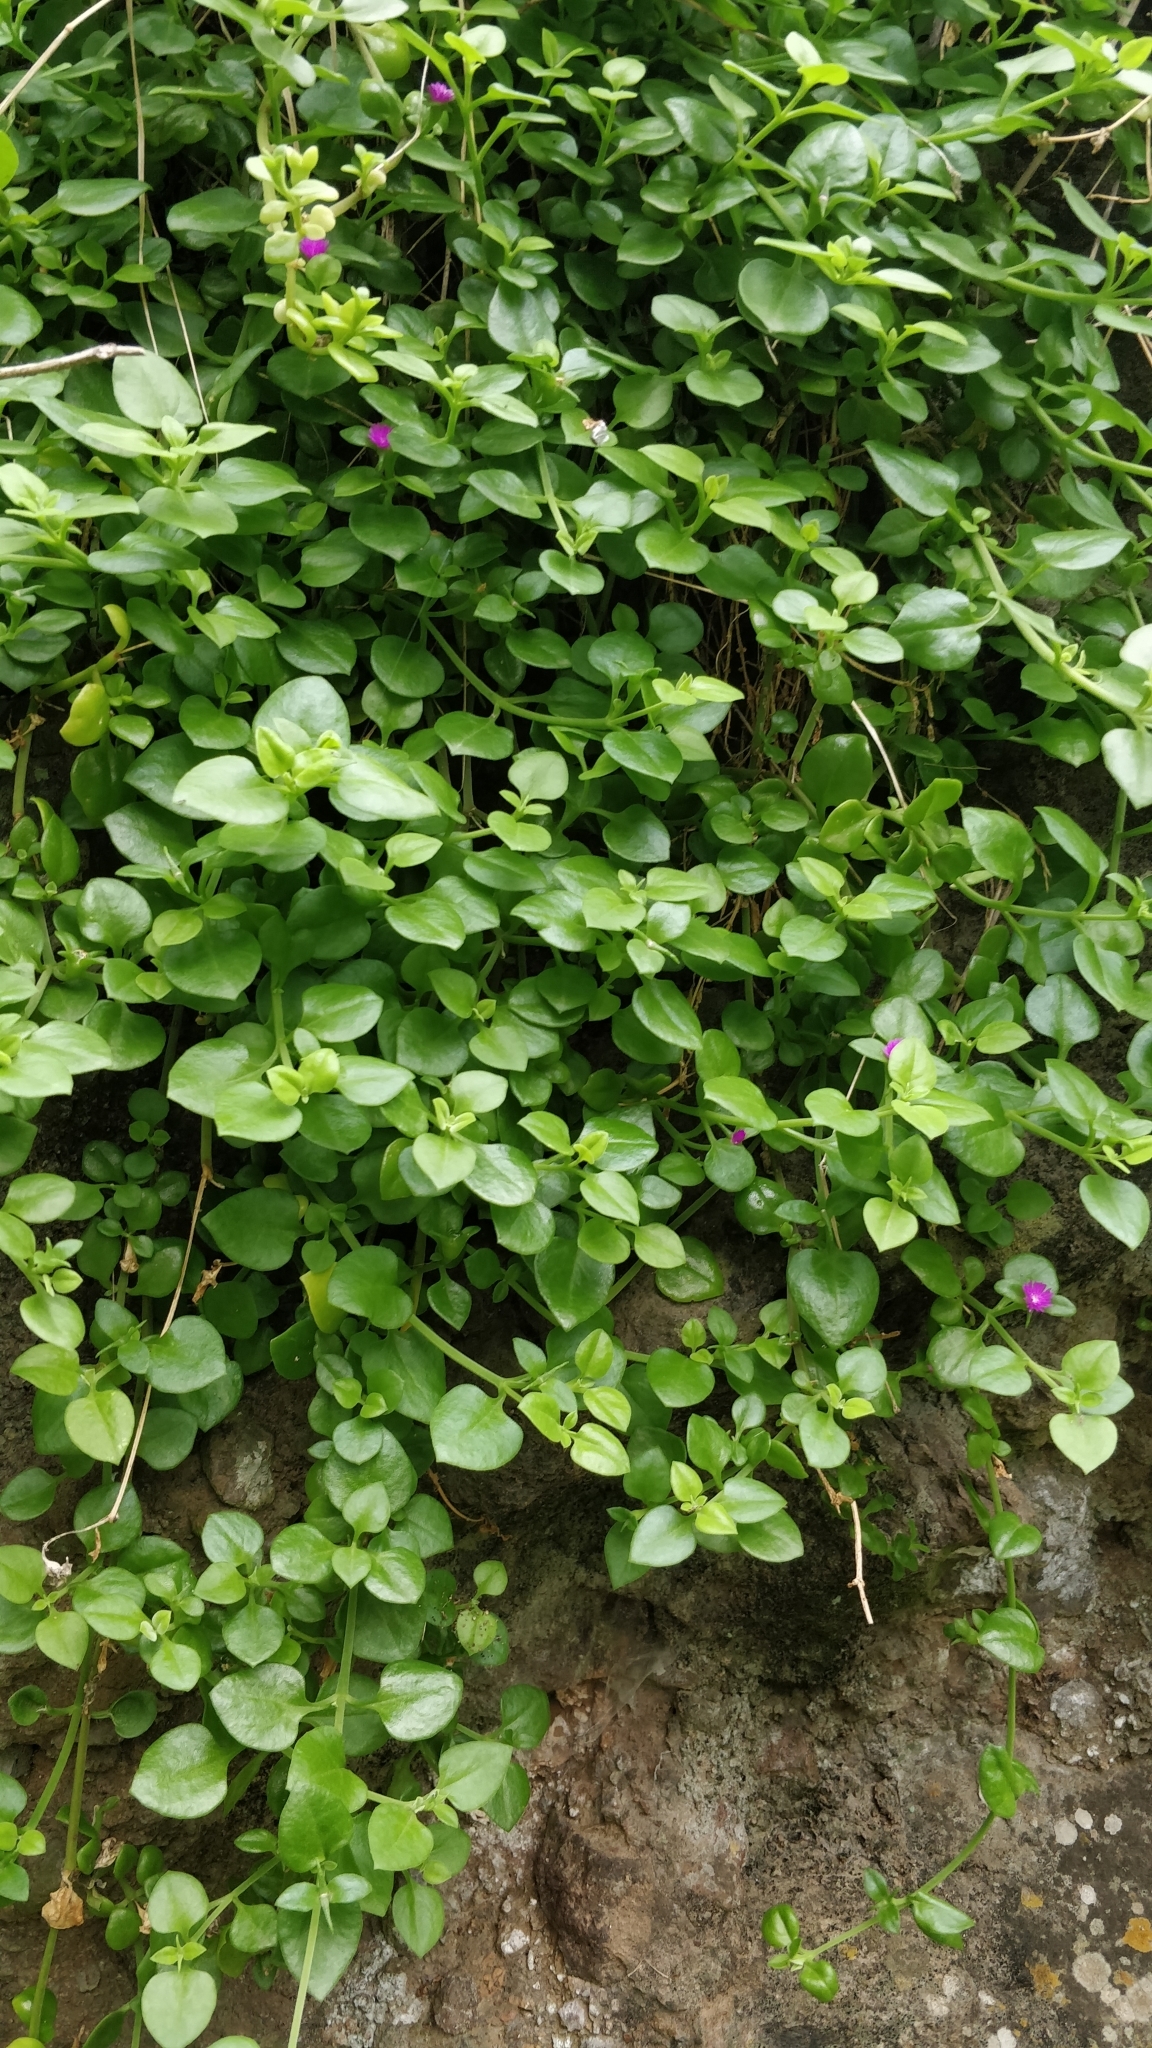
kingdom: Plantae
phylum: Tracheophyta
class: Magnoliopsida
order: Caryophyllales
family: Aizoaceae
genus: Mesembryanthemum
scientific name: Mesembryanthemum cordifolium
